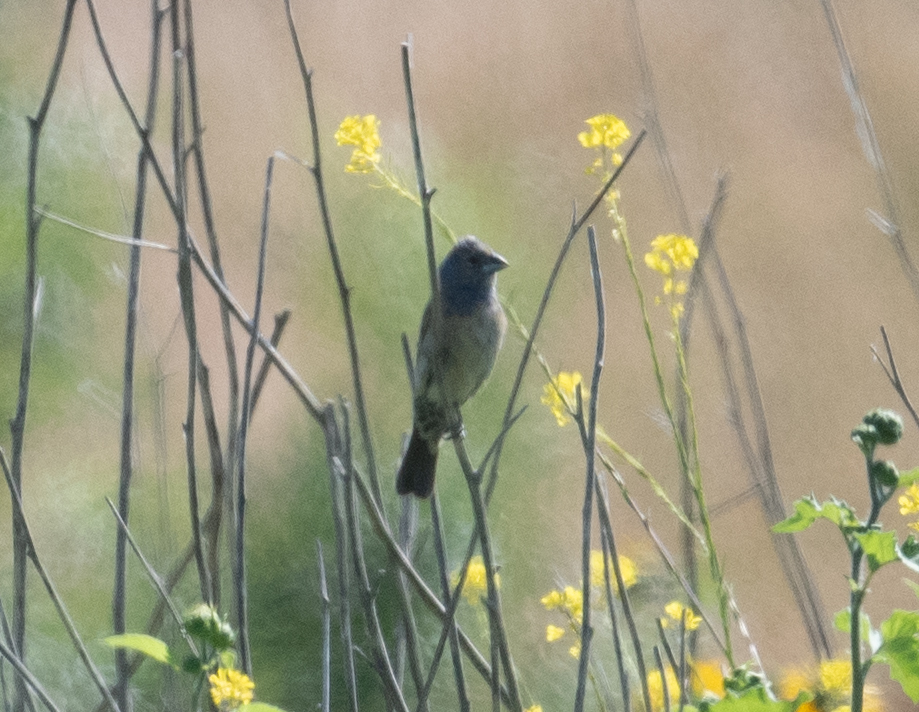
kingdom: Animalia
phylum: Chordata
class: Aves
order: Passeriformes
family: Cardinalidae
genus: Passerina
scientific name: Passerina caerulea
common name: Blue grosbeak
